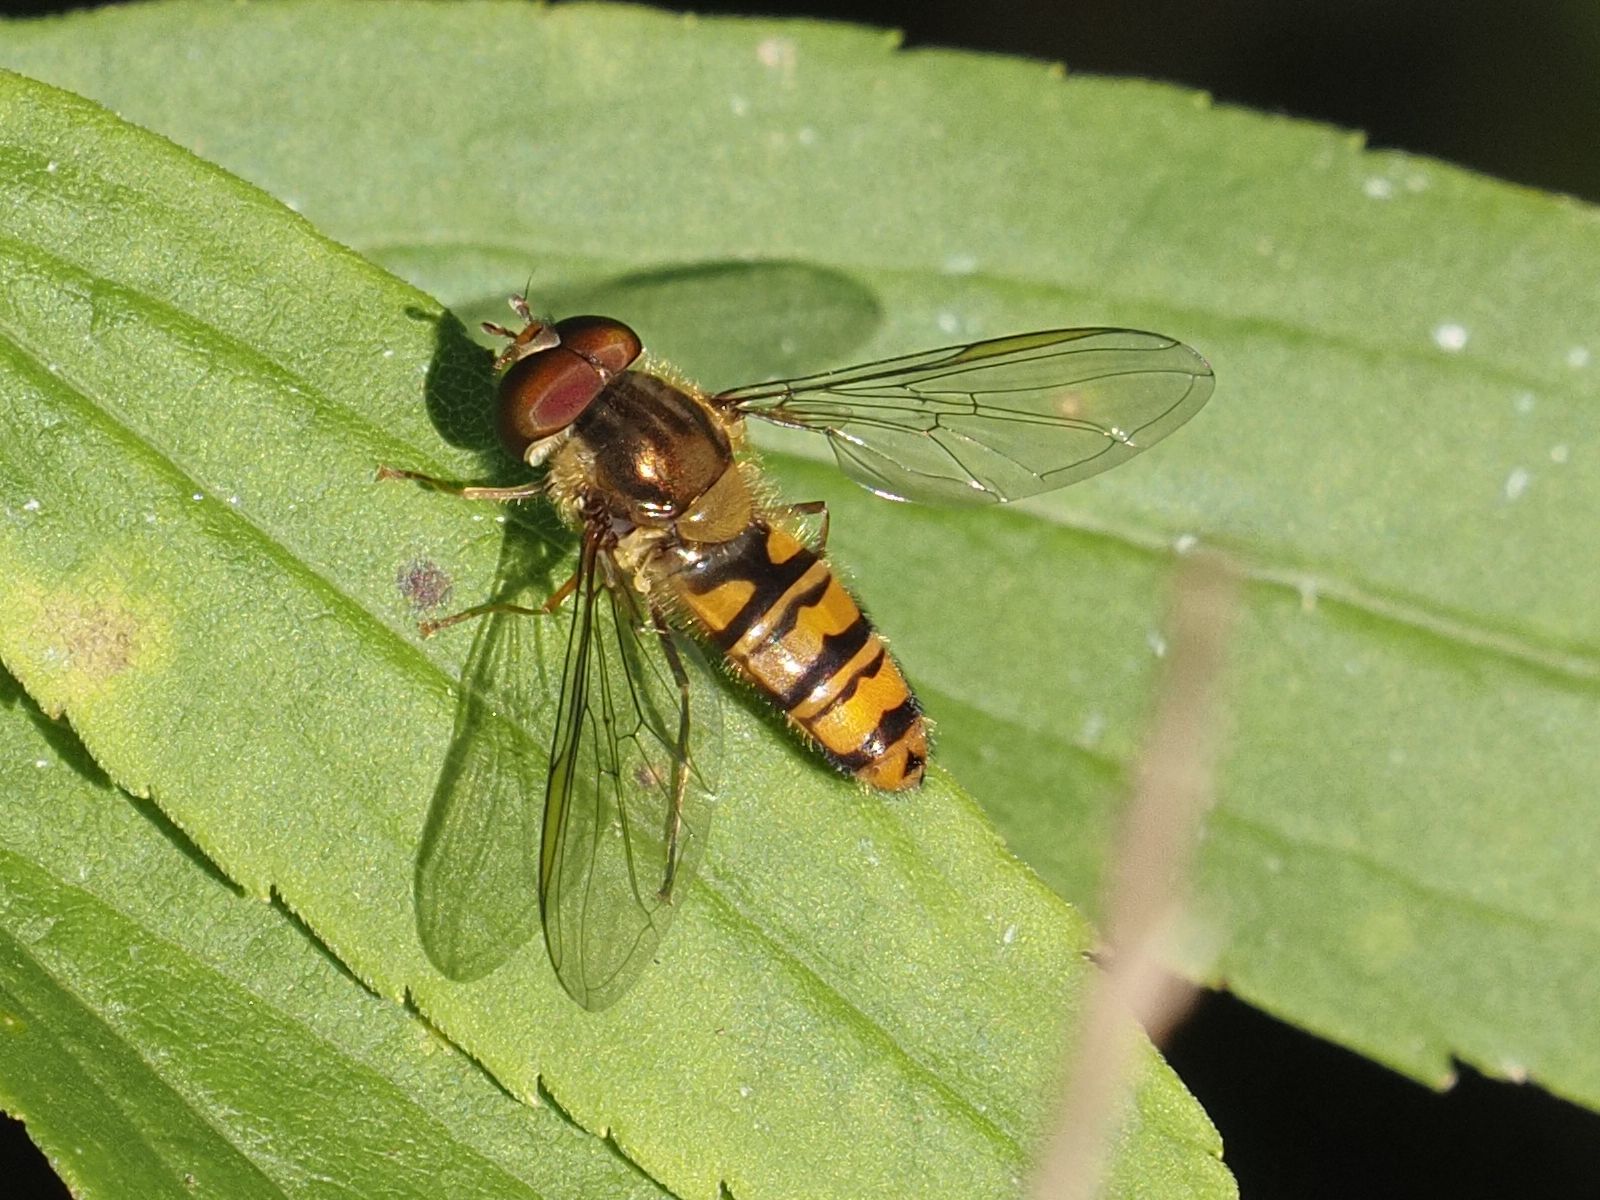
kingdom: Animalia
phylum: Arthropoda
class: Insecta
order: Diptera
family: Syrphidae
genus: Episyrphus
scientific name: Episyrphus balteatus
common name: Marmalade hoverfly
